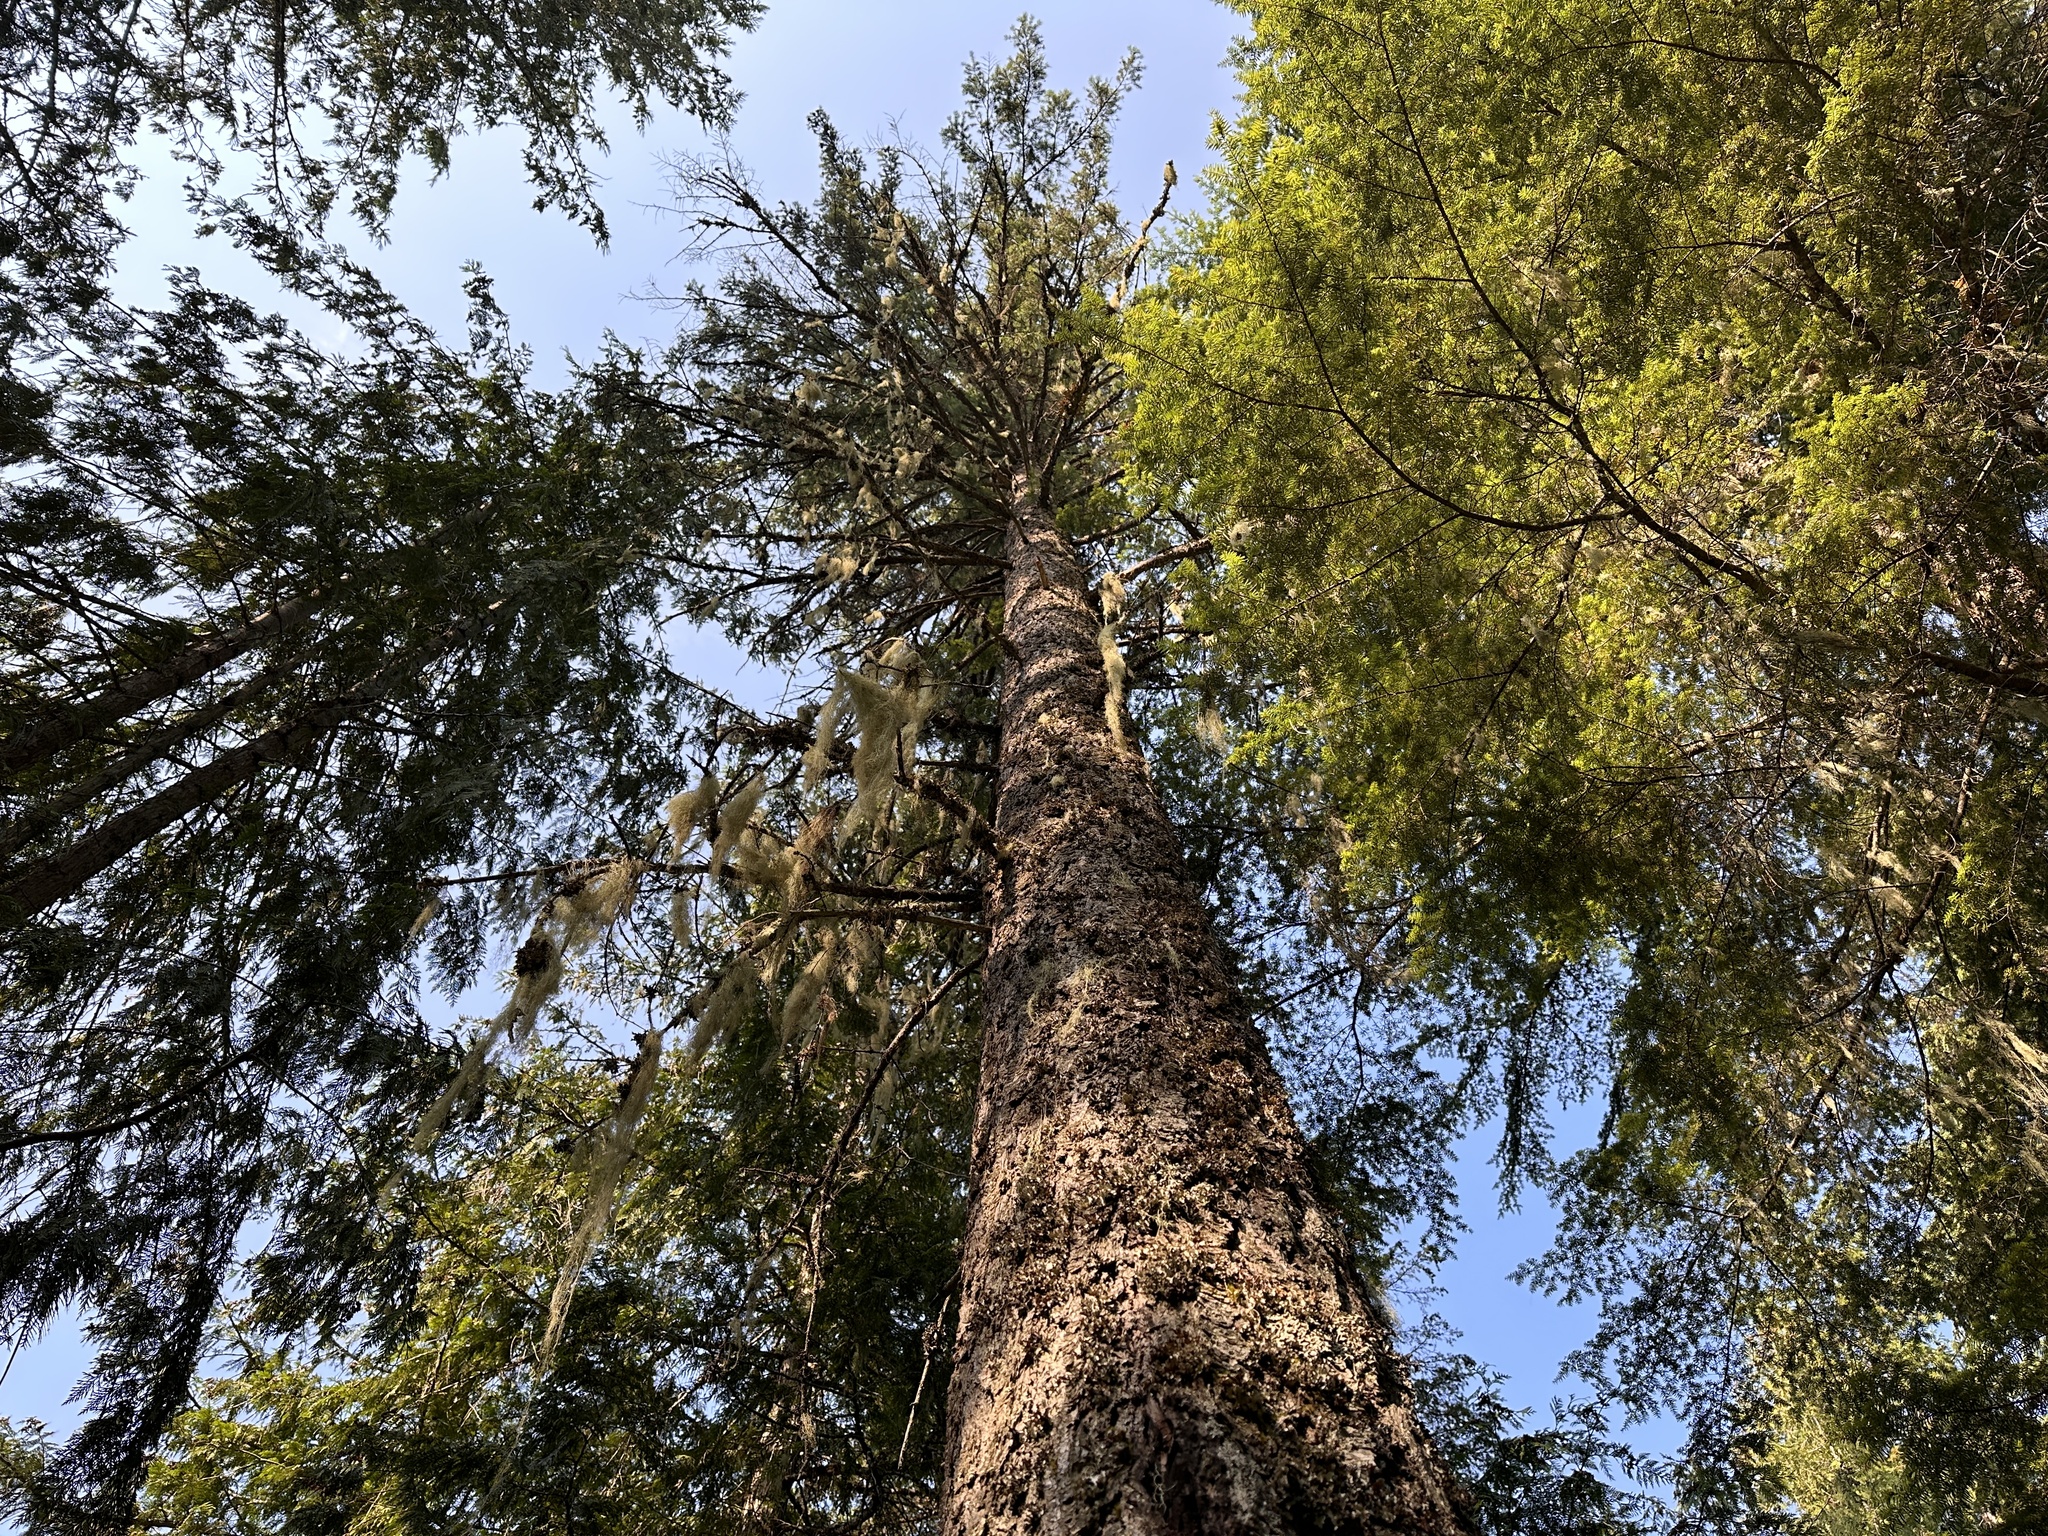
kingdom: Plantae
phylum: Tracheophyta
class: Pinopsida
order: Pinales
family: Pinaceae
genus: Pseudotsuga
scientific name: Pseudotsuga menziesii
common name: Douglas fir
